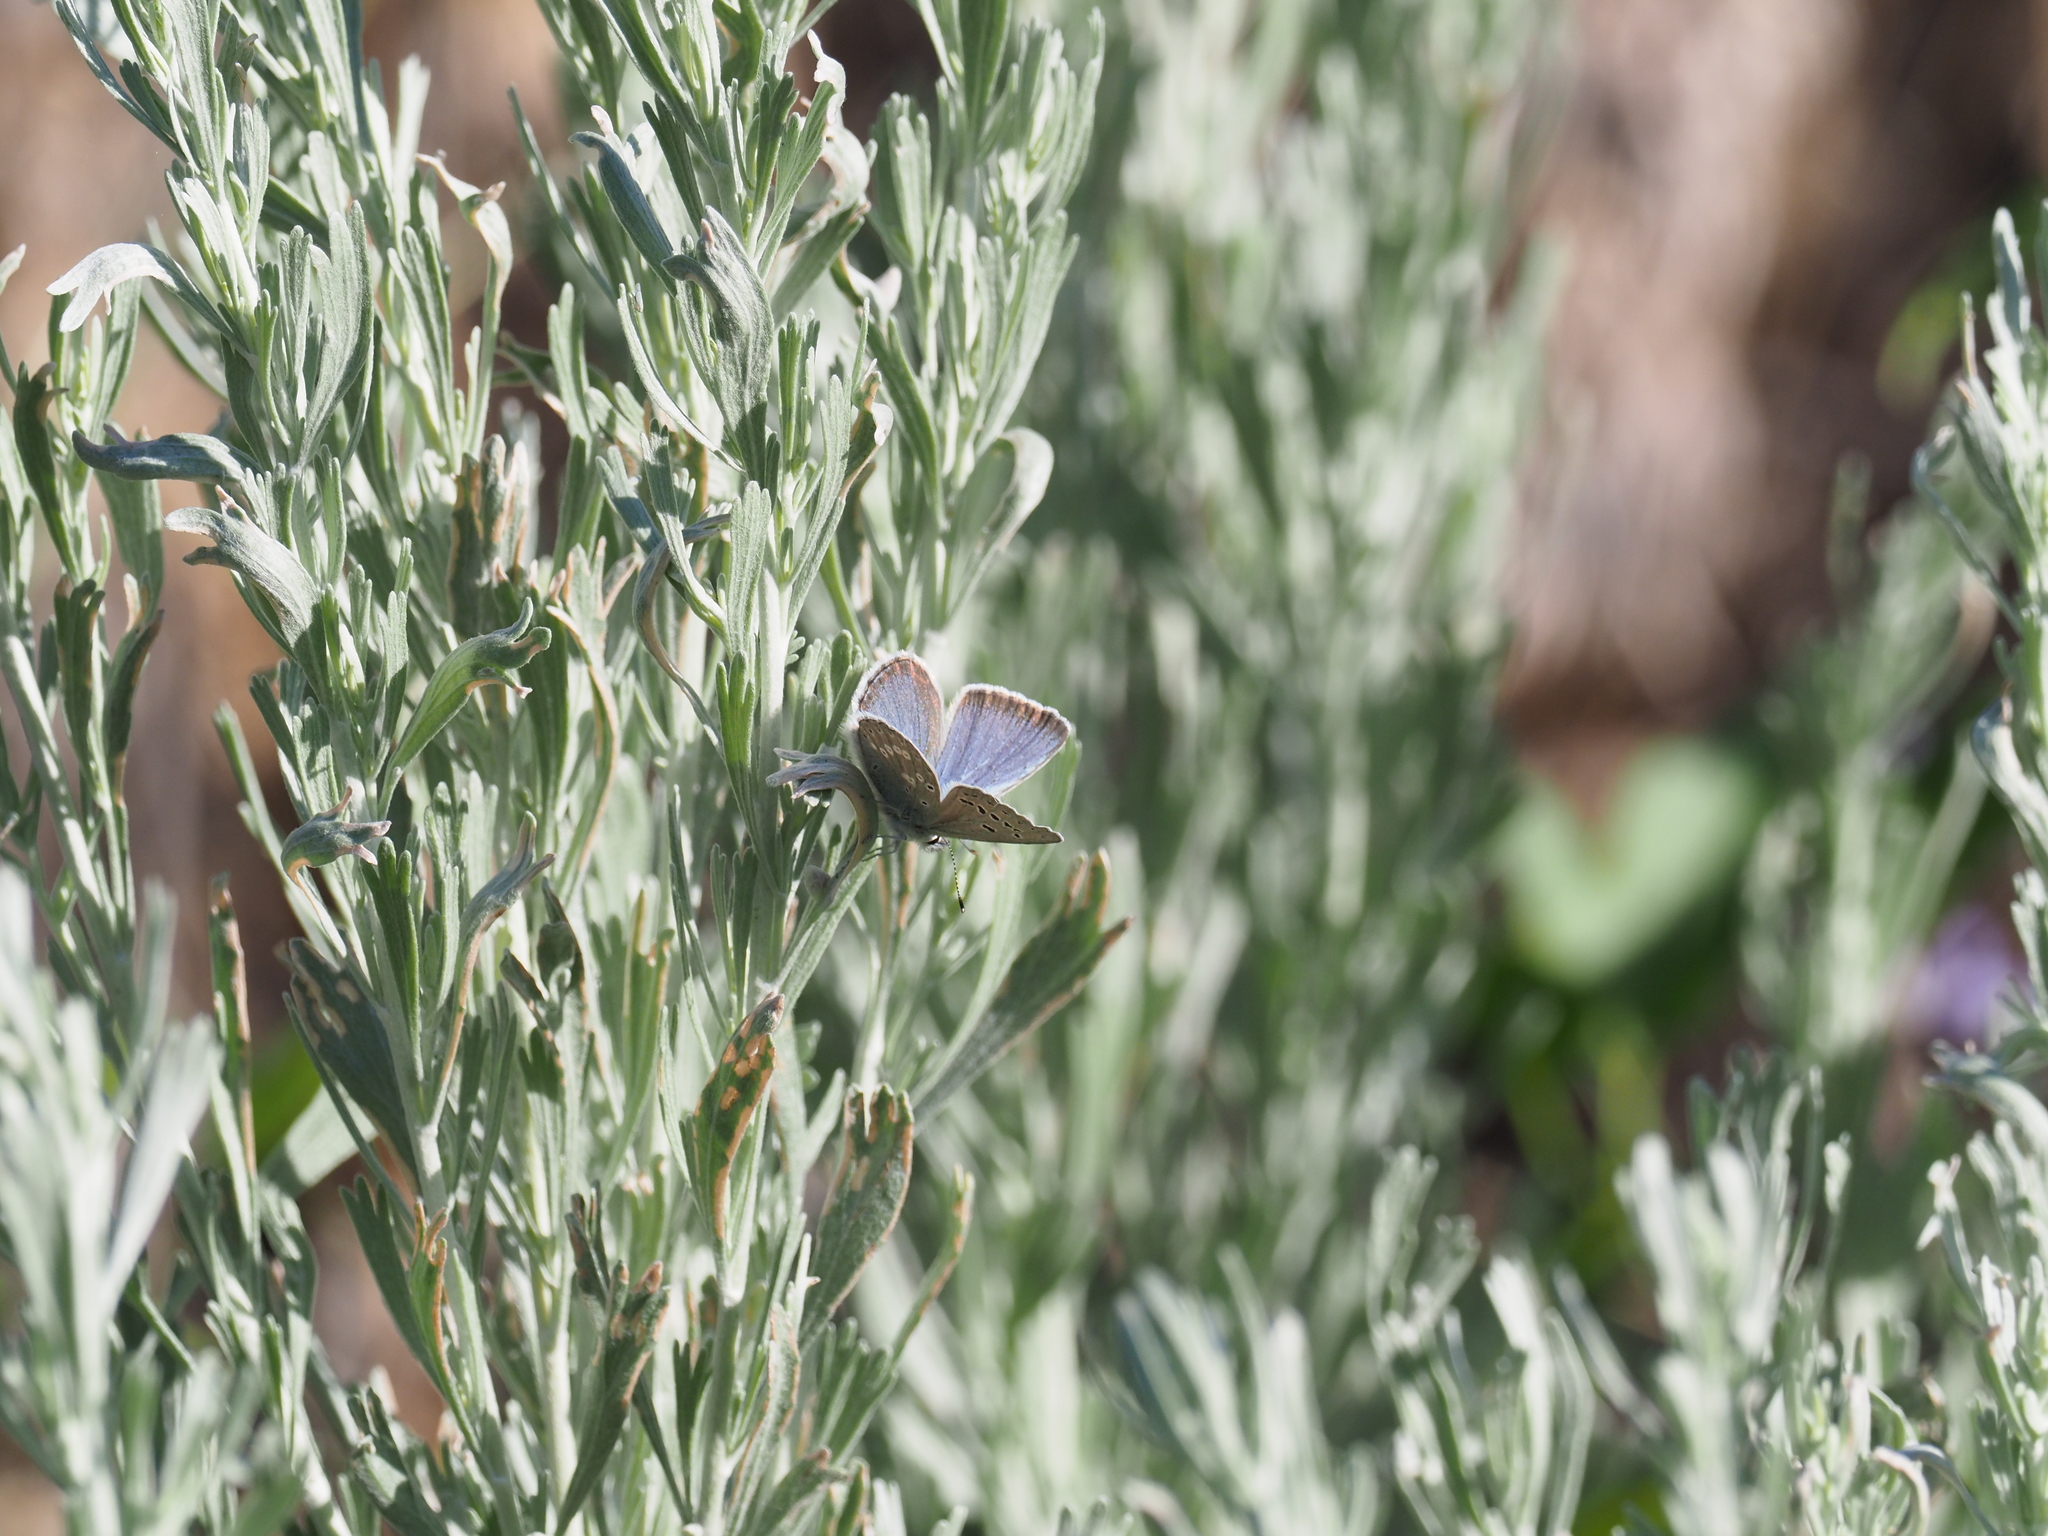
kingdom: Animalia
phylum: Arthropoda
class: Insecta
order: Lepidoptera
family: Lycaenidae
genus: Icaricia
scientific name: Icaricia icarioides
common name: Boisduval's blue
